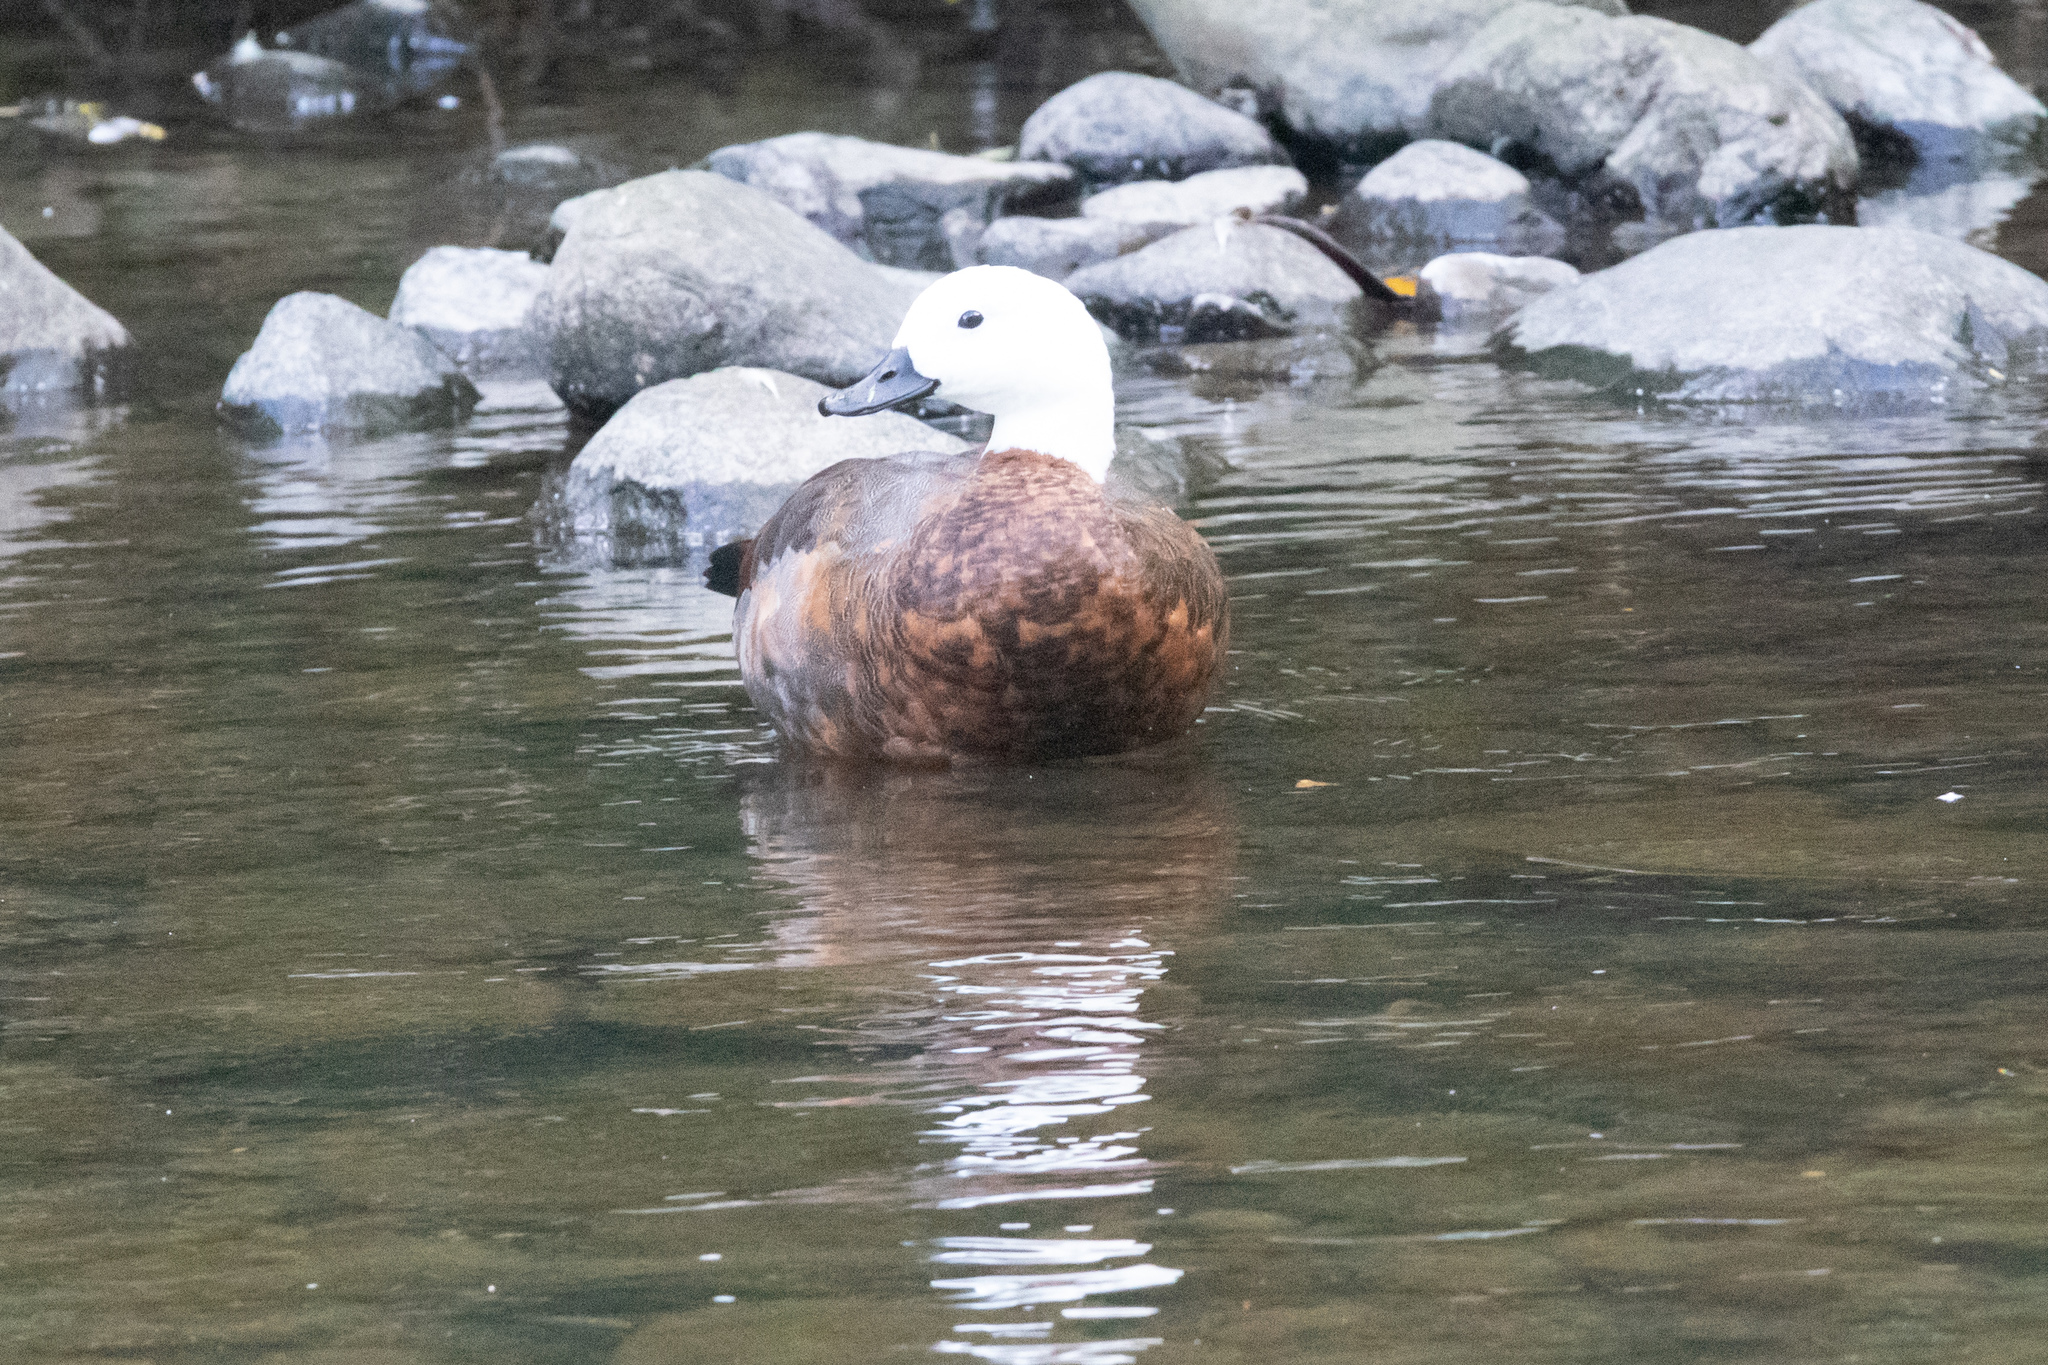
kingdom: Animalia
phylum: Chordata
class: Aves
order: Anseriformes
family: Anatidae
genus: Tadorna
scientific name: Tadorna variegata
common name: Paradise shelduck
